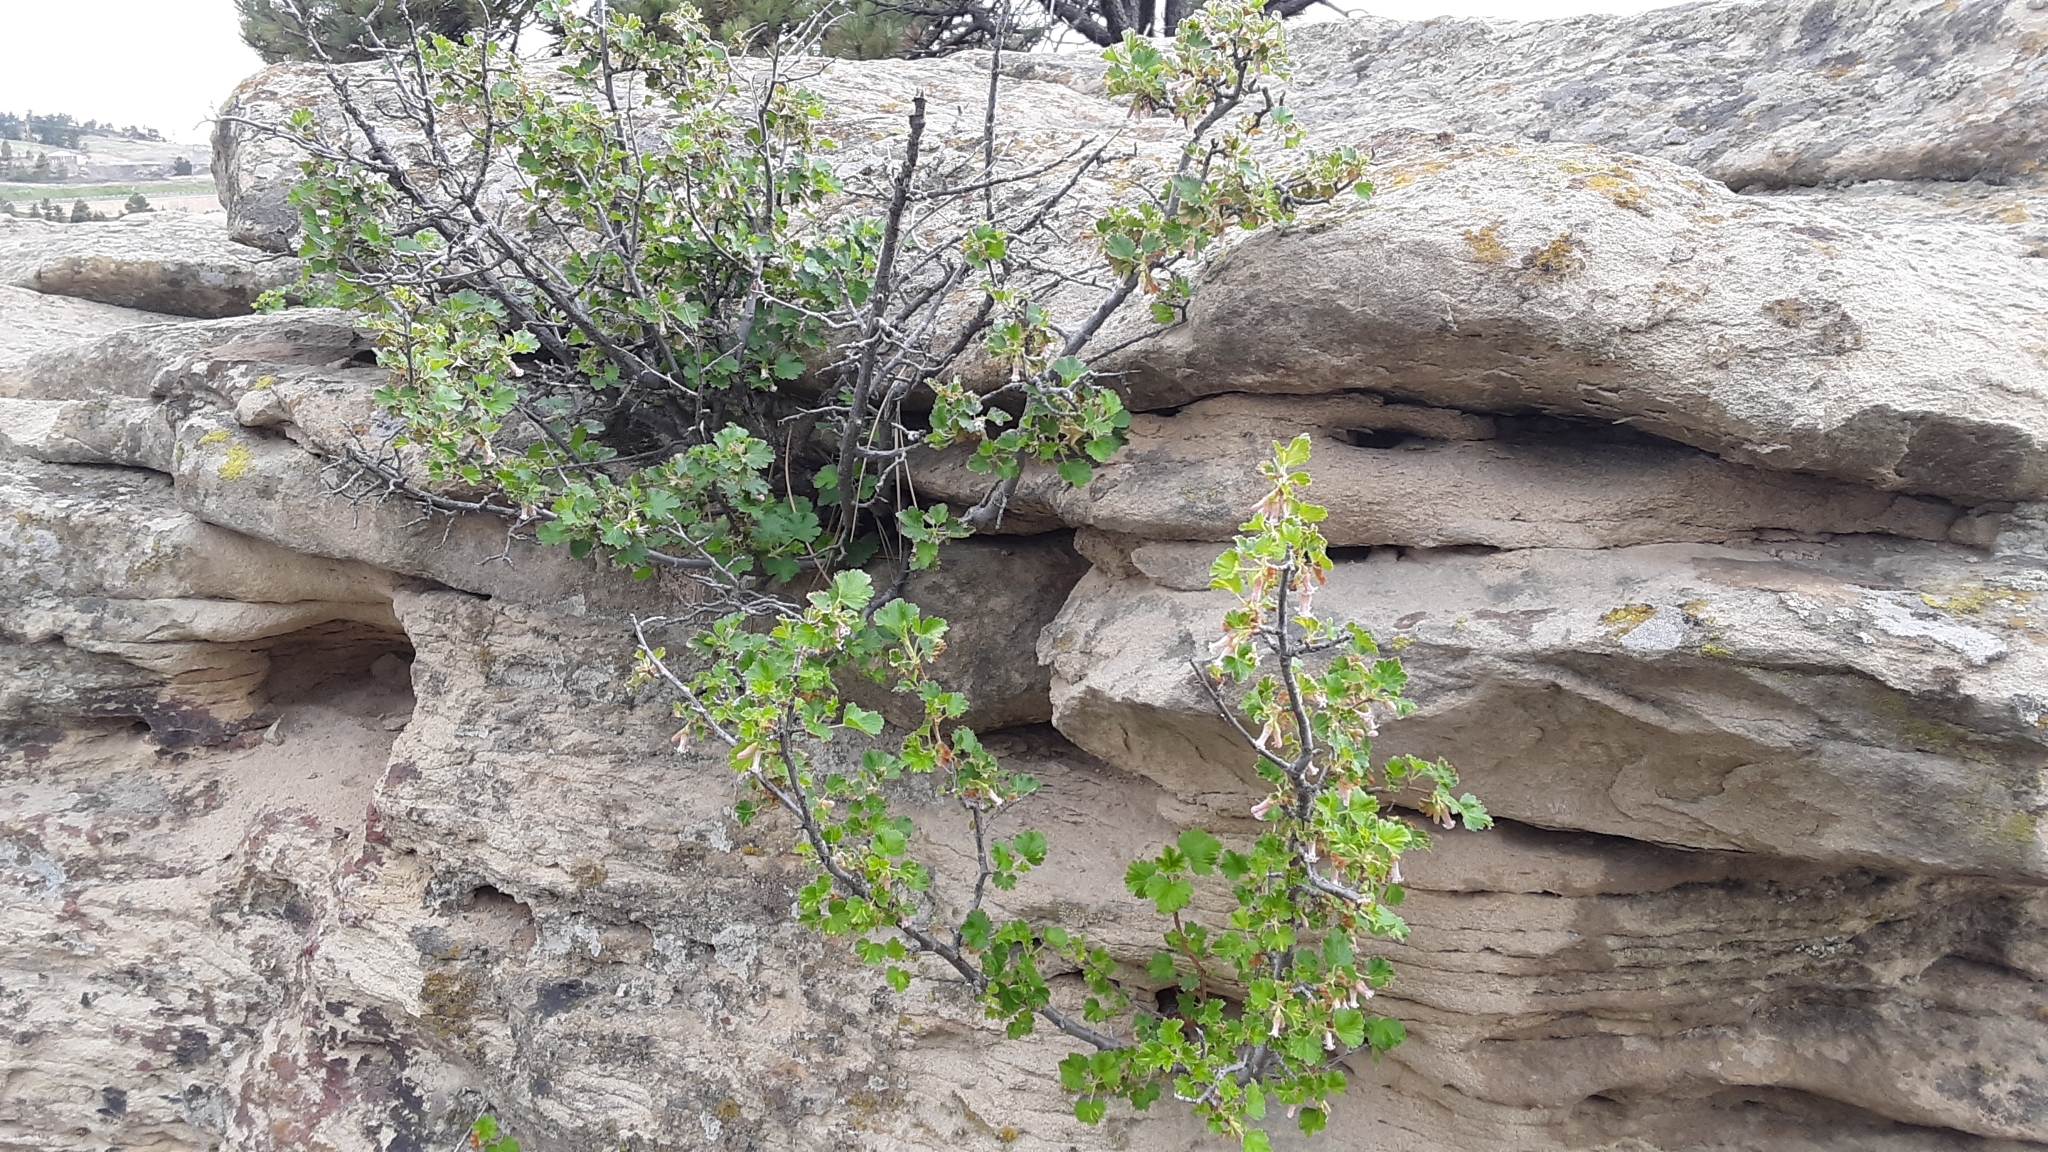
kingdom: Plantae
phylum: Tracheophyta
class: Magnoliopsida
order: Saxifragales
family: Grossulariaceae
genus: Ribes
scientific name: Ribes cereum
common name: Wax currant
